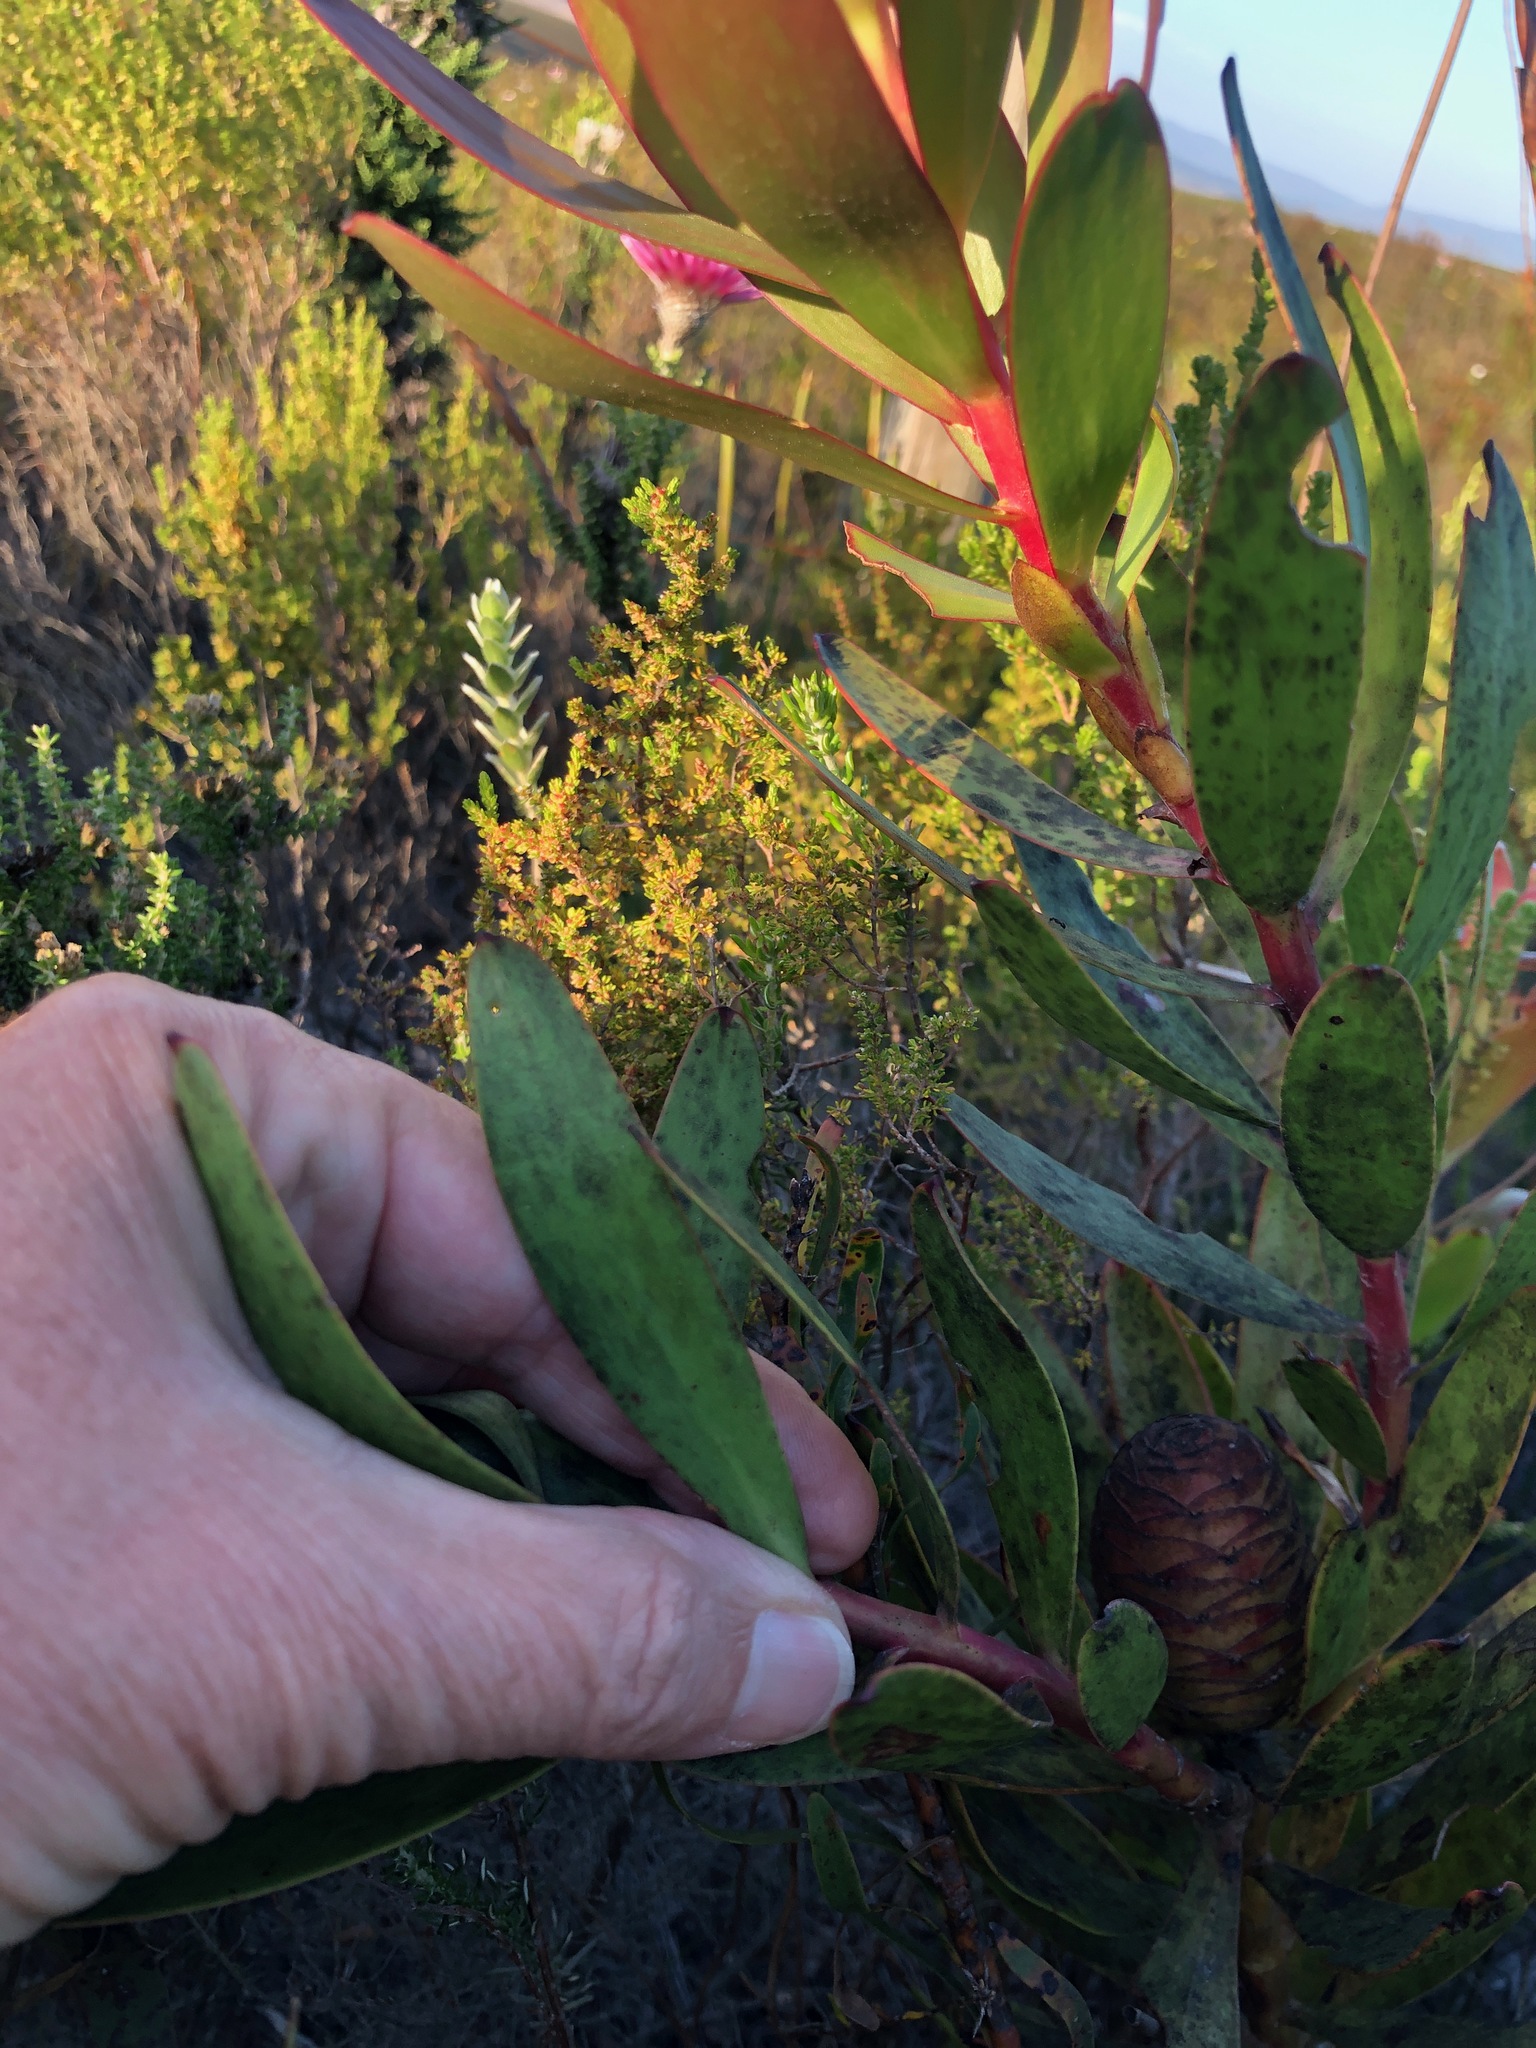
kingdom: Plantae
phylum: Tracheophyta
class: Magnoliopsida
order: Proteales
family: Proteaceae
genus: Leucadendron
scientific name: Leucadendron gandogeri
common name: Broad-leaf conebush
